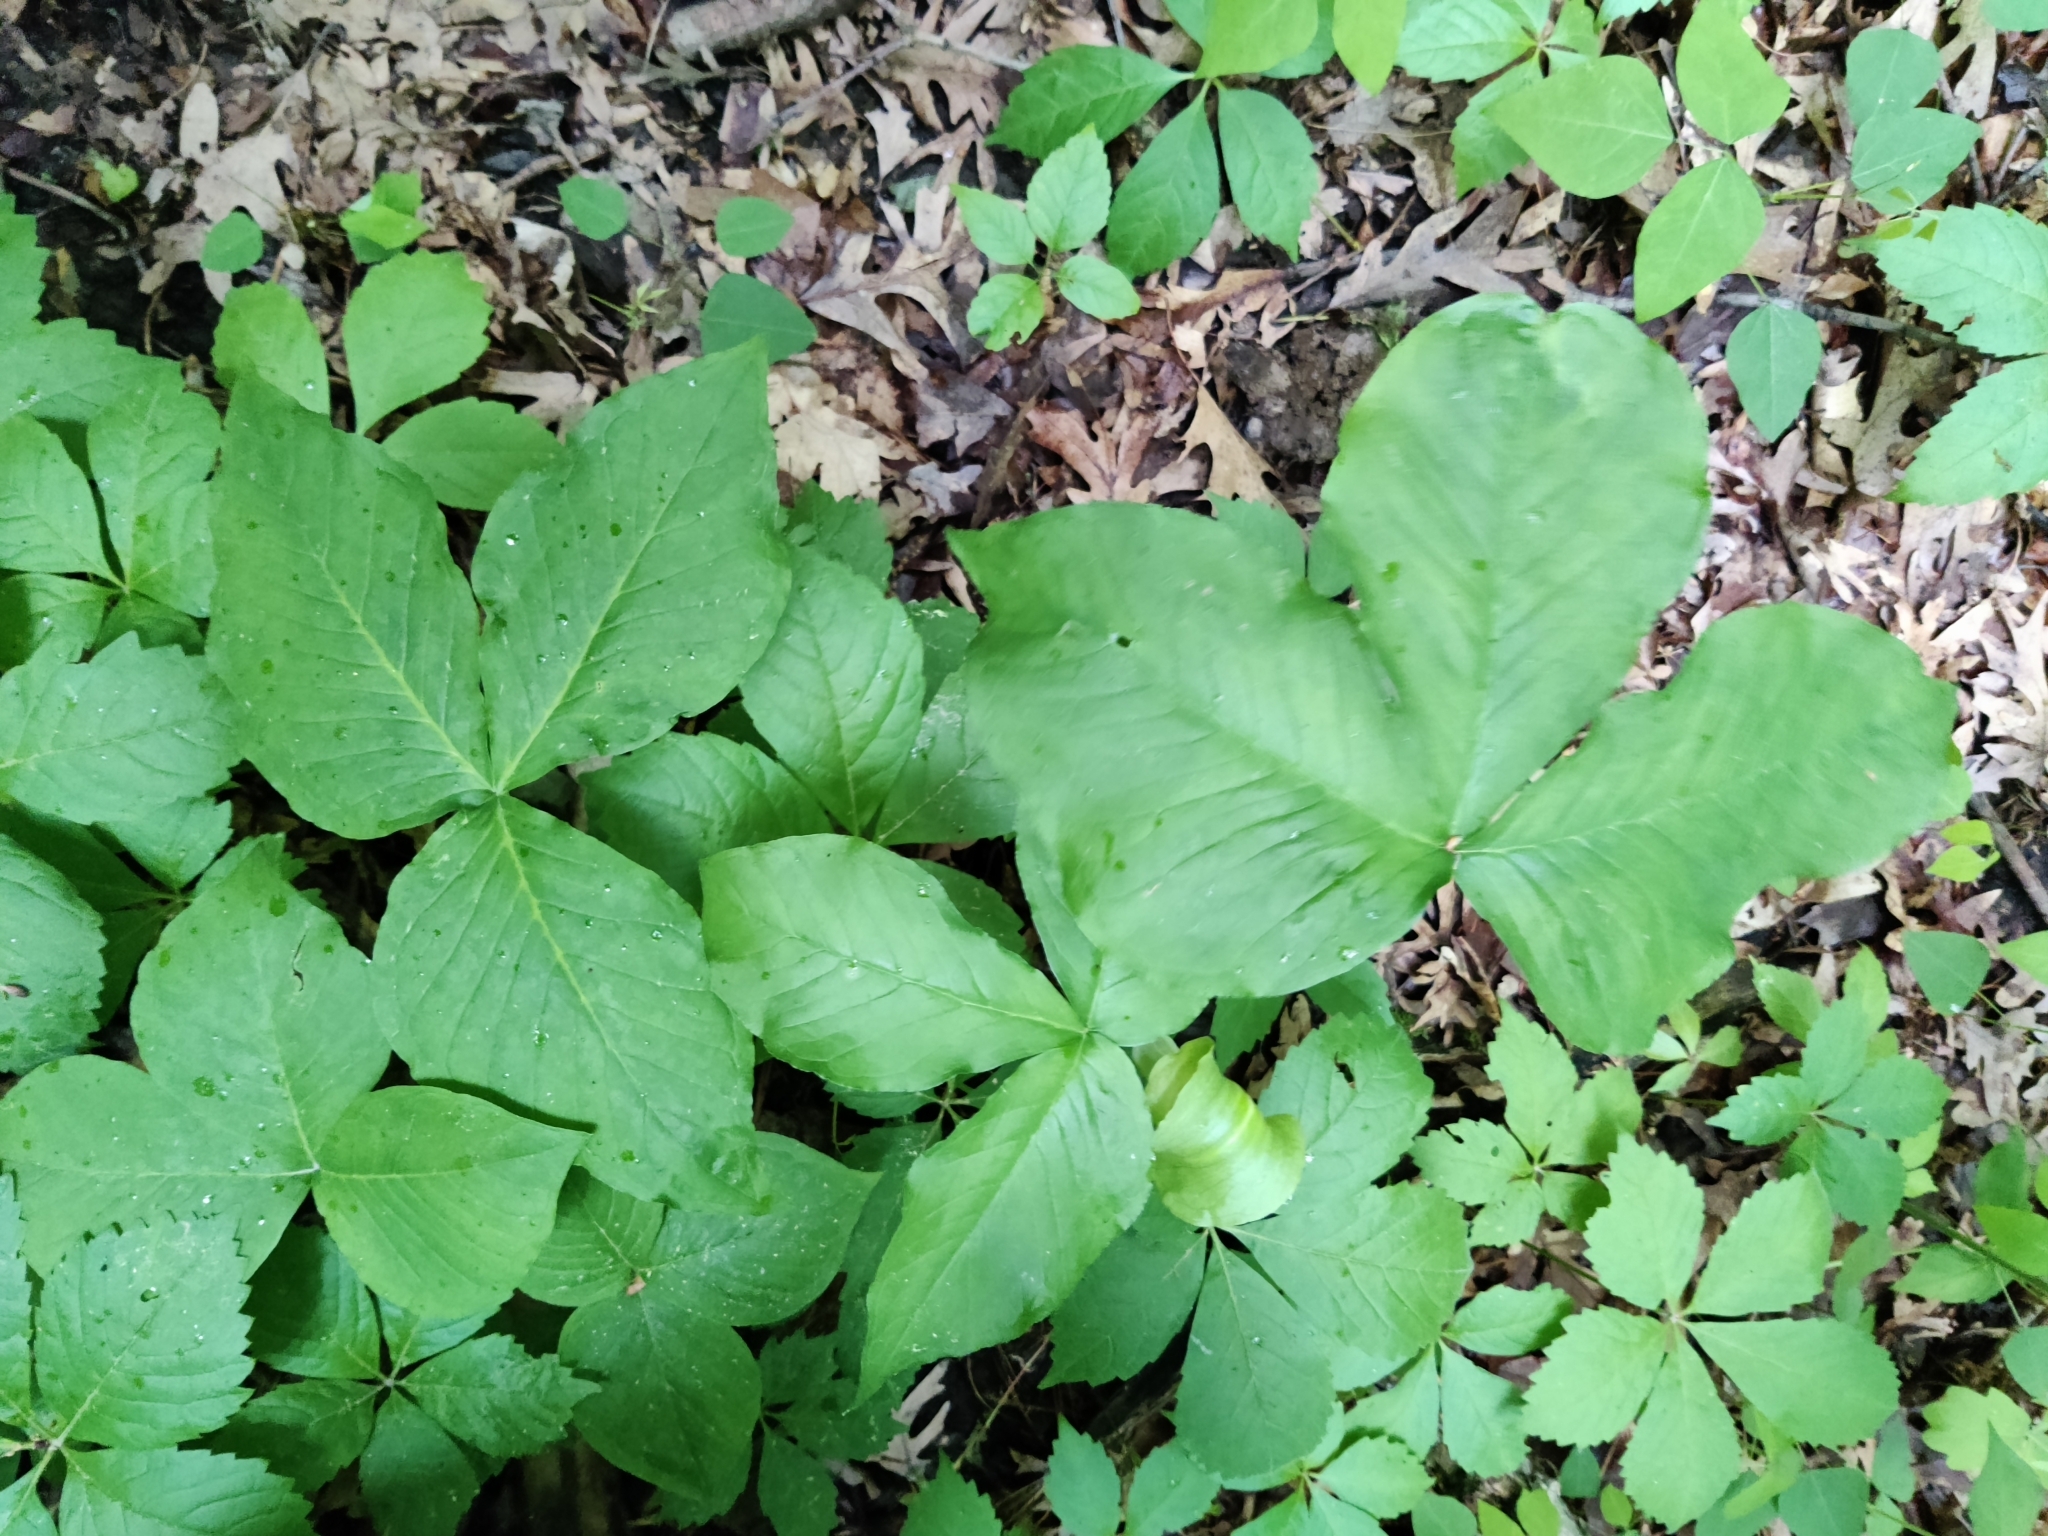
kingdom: Plantae
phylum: Tracheophyta
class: Liliopsida
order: Alismatales
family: Araceae
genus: Arisaema
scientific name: Arisaema triphyllum
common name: Jack-in-the-pulpit
